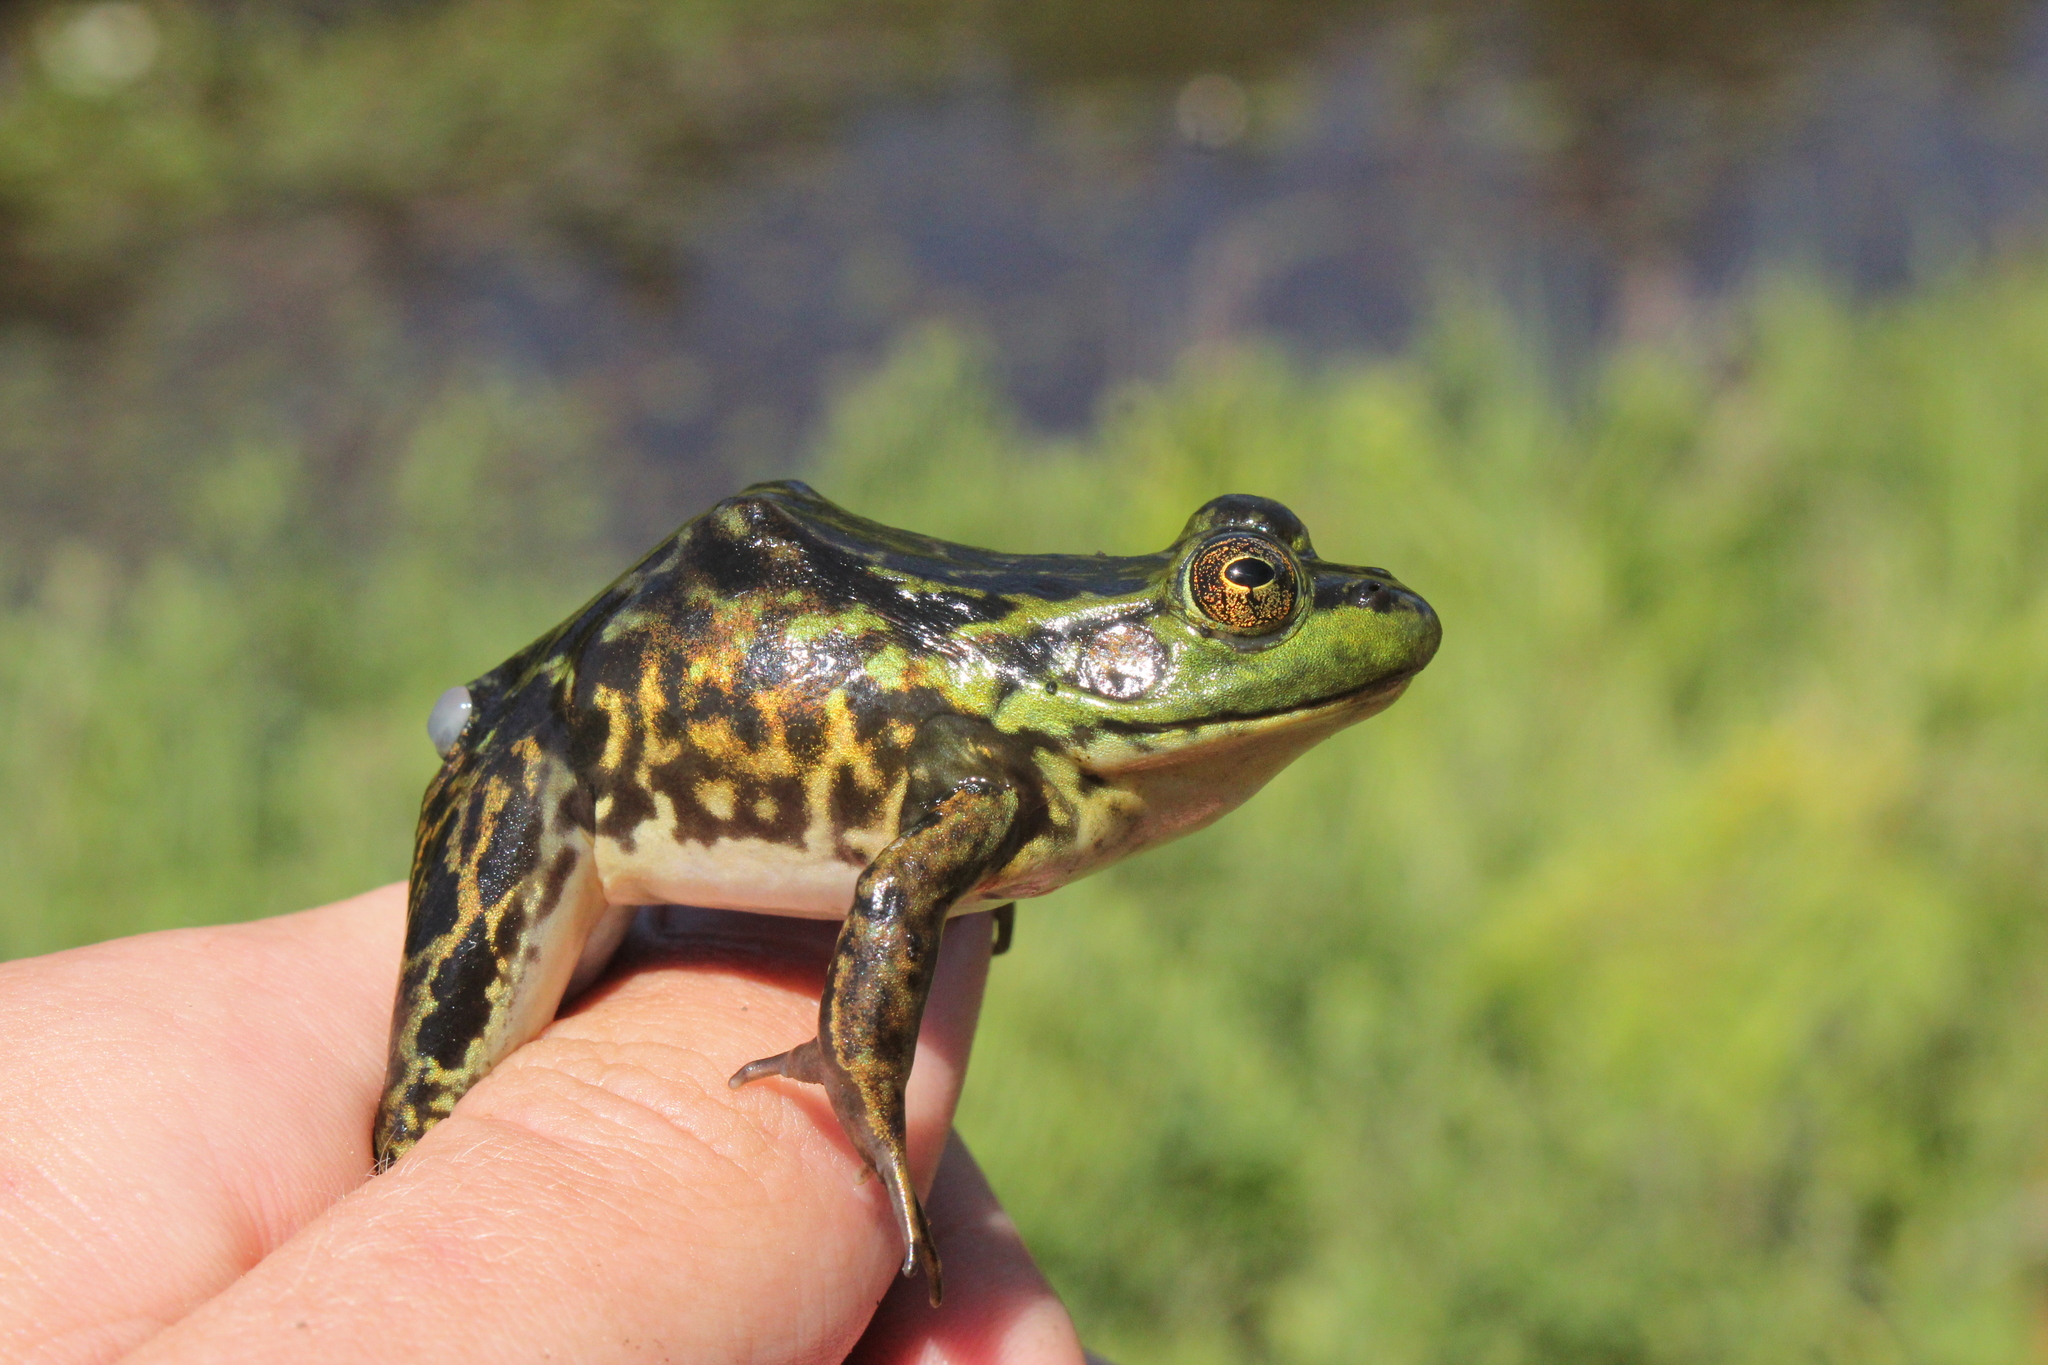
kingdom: Animalia
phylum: Chordata
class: Amphibia
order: Anura
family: Ranidae
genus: Lithobates
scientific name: Lithobates septentrionalis
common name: Mink frog
